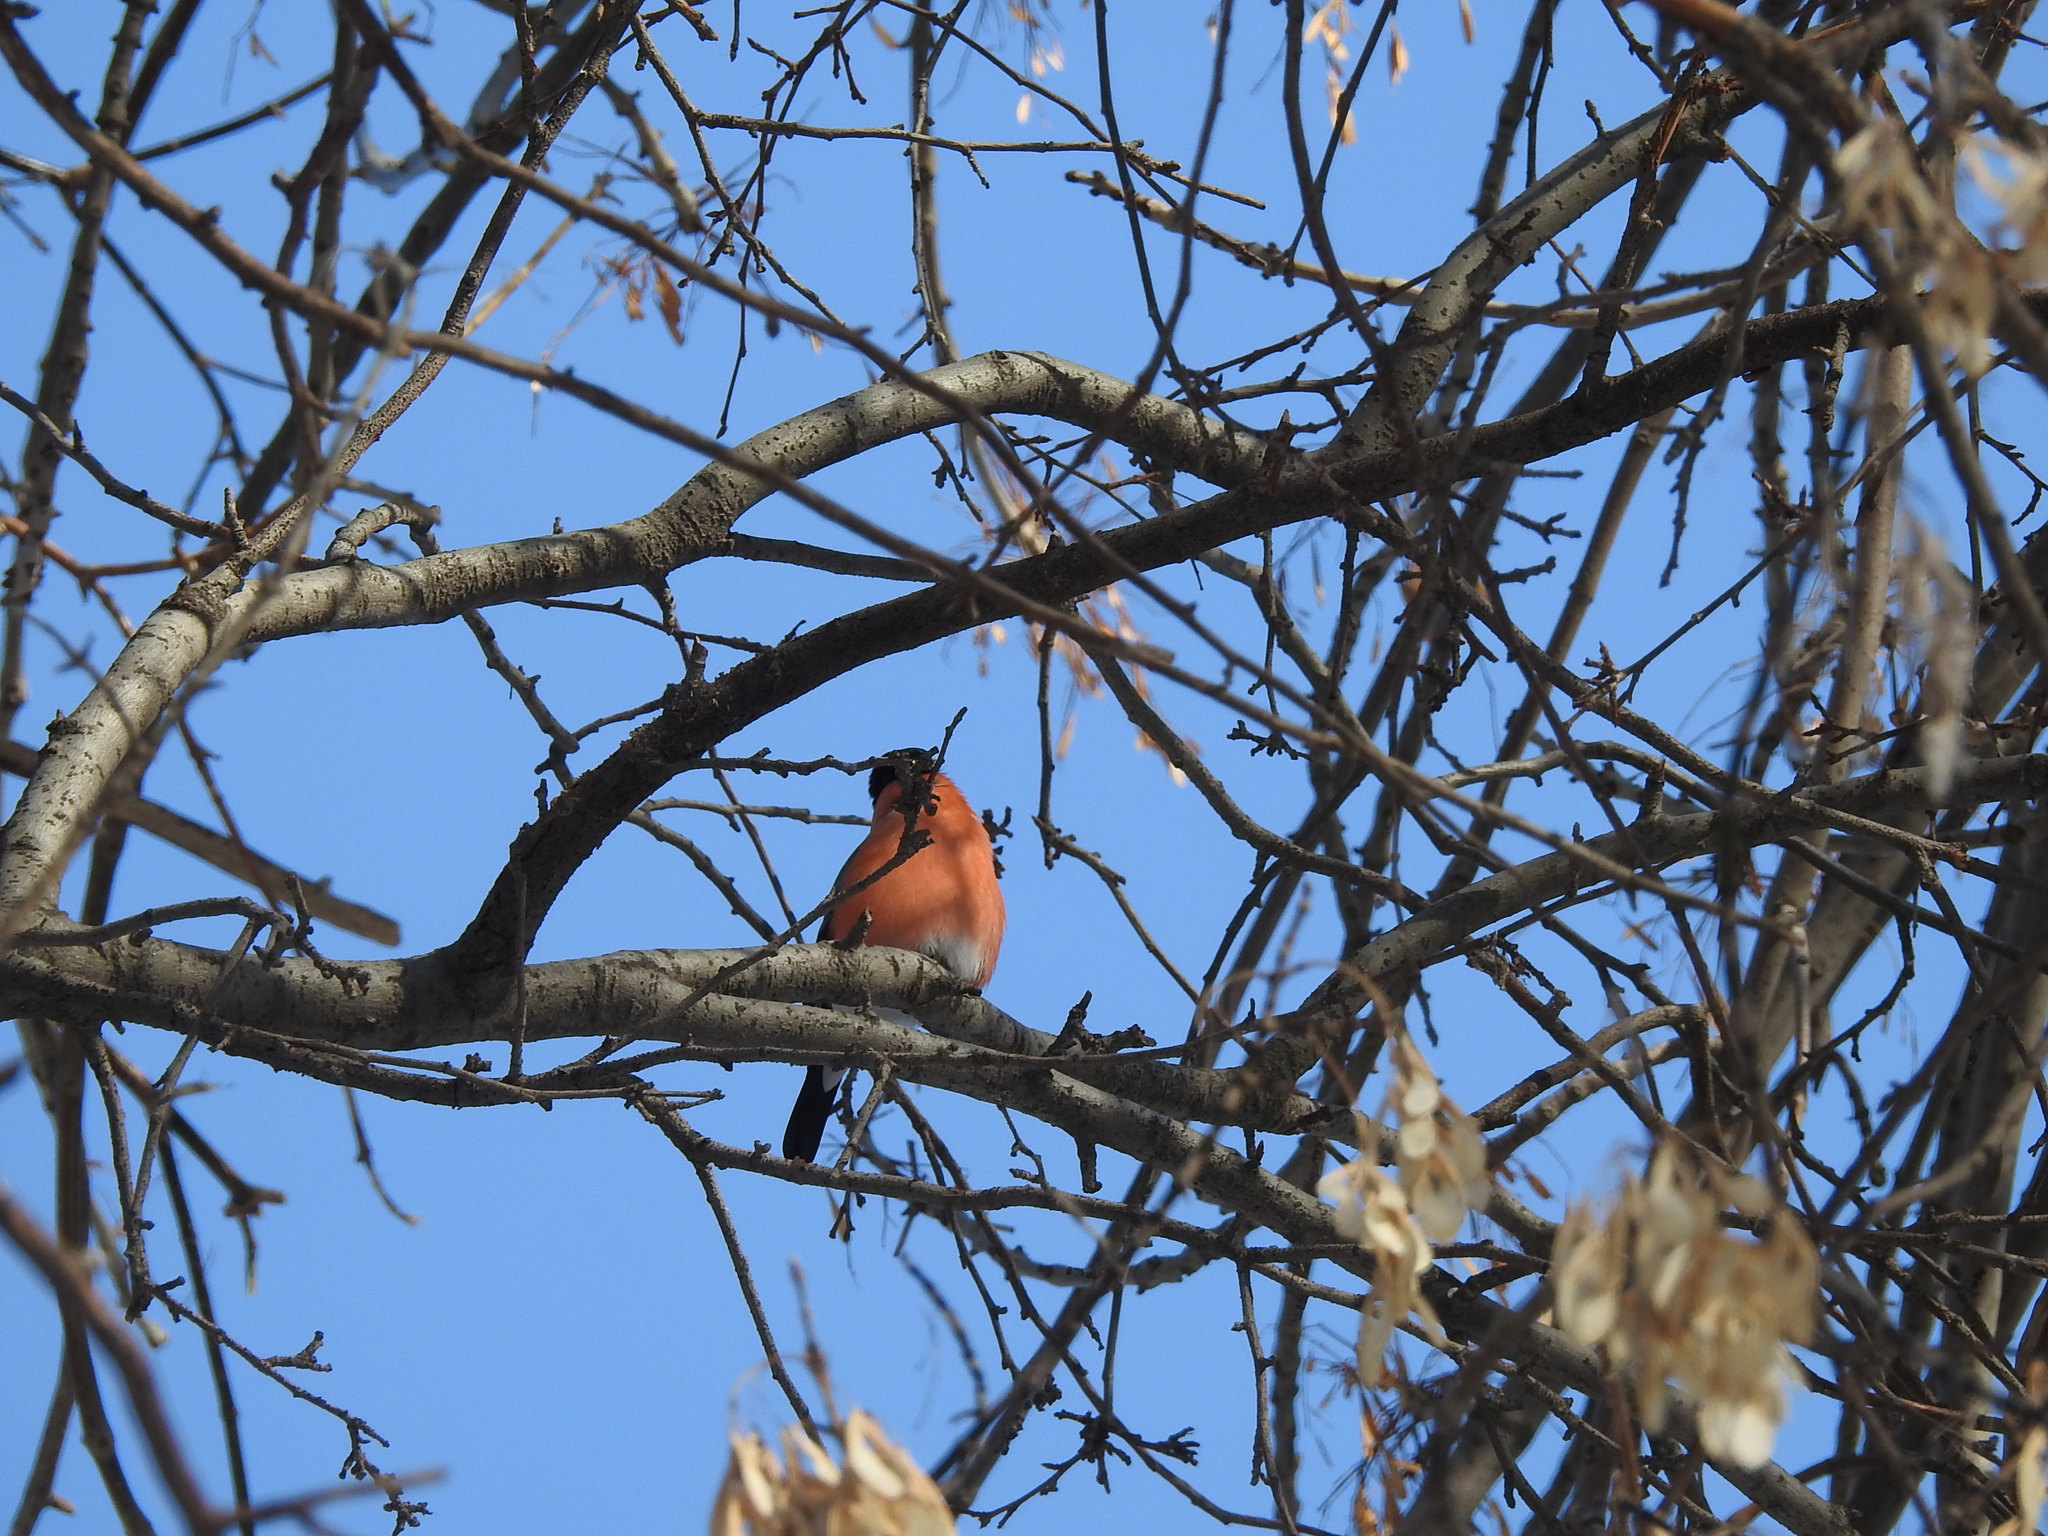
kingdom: Animalia
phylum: Chordata
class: Aves
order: Passeriformes
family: Fringillidae
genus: Pyrrhula
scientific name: Pyrrhula pyrrhula
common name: Eurasian bullfinch
